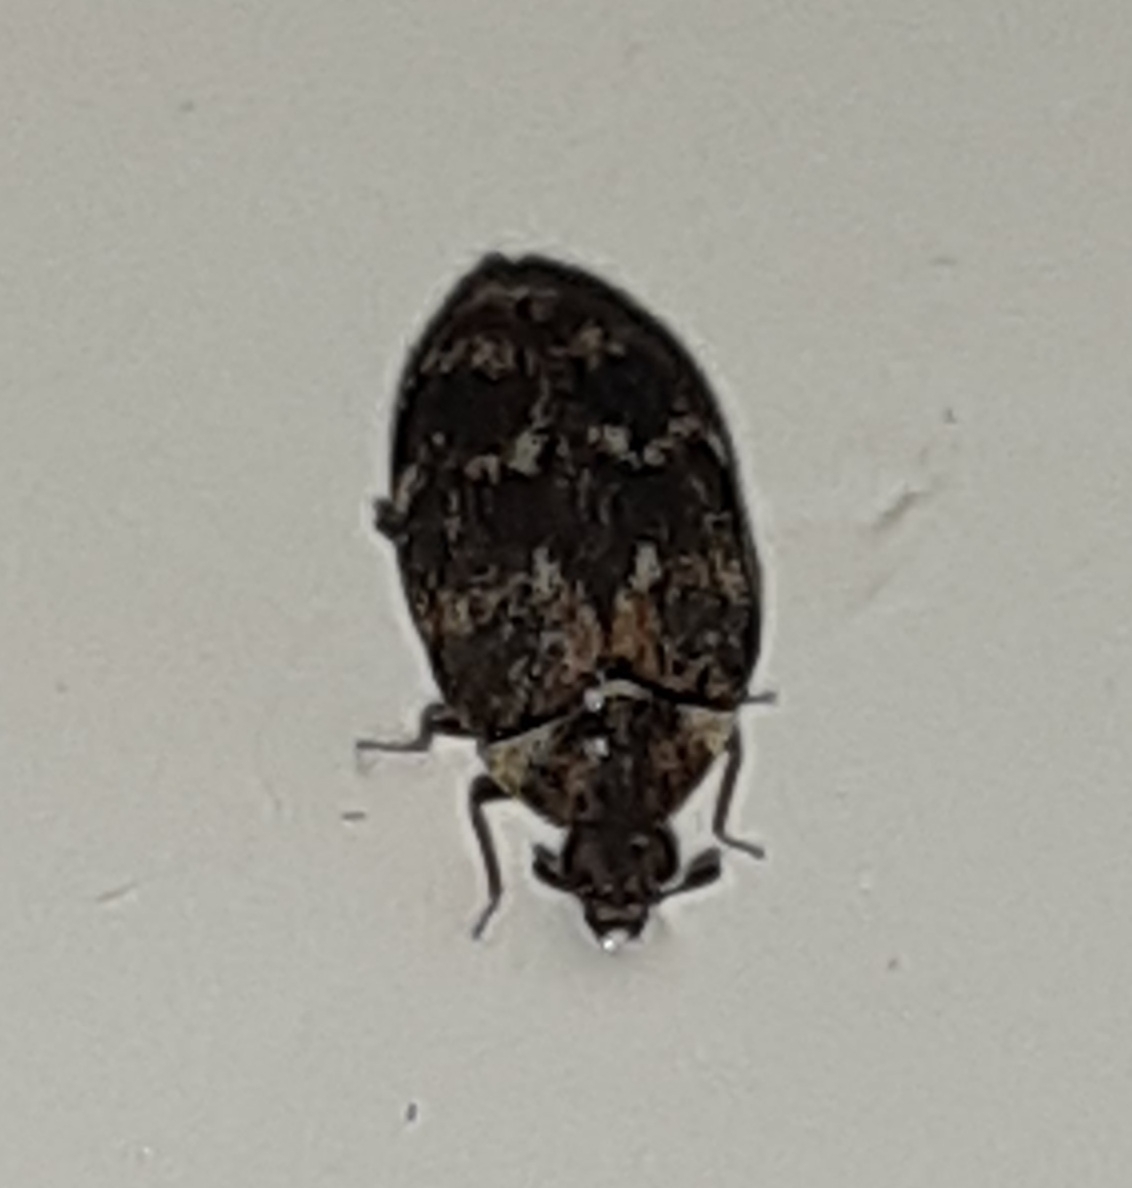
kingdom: Animalia
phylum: Arthropoda
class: Insecta
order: Coleoptera
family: Dermestidae
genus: Anthrenus
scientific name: Anthrenus museorum
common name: Museum beetle
